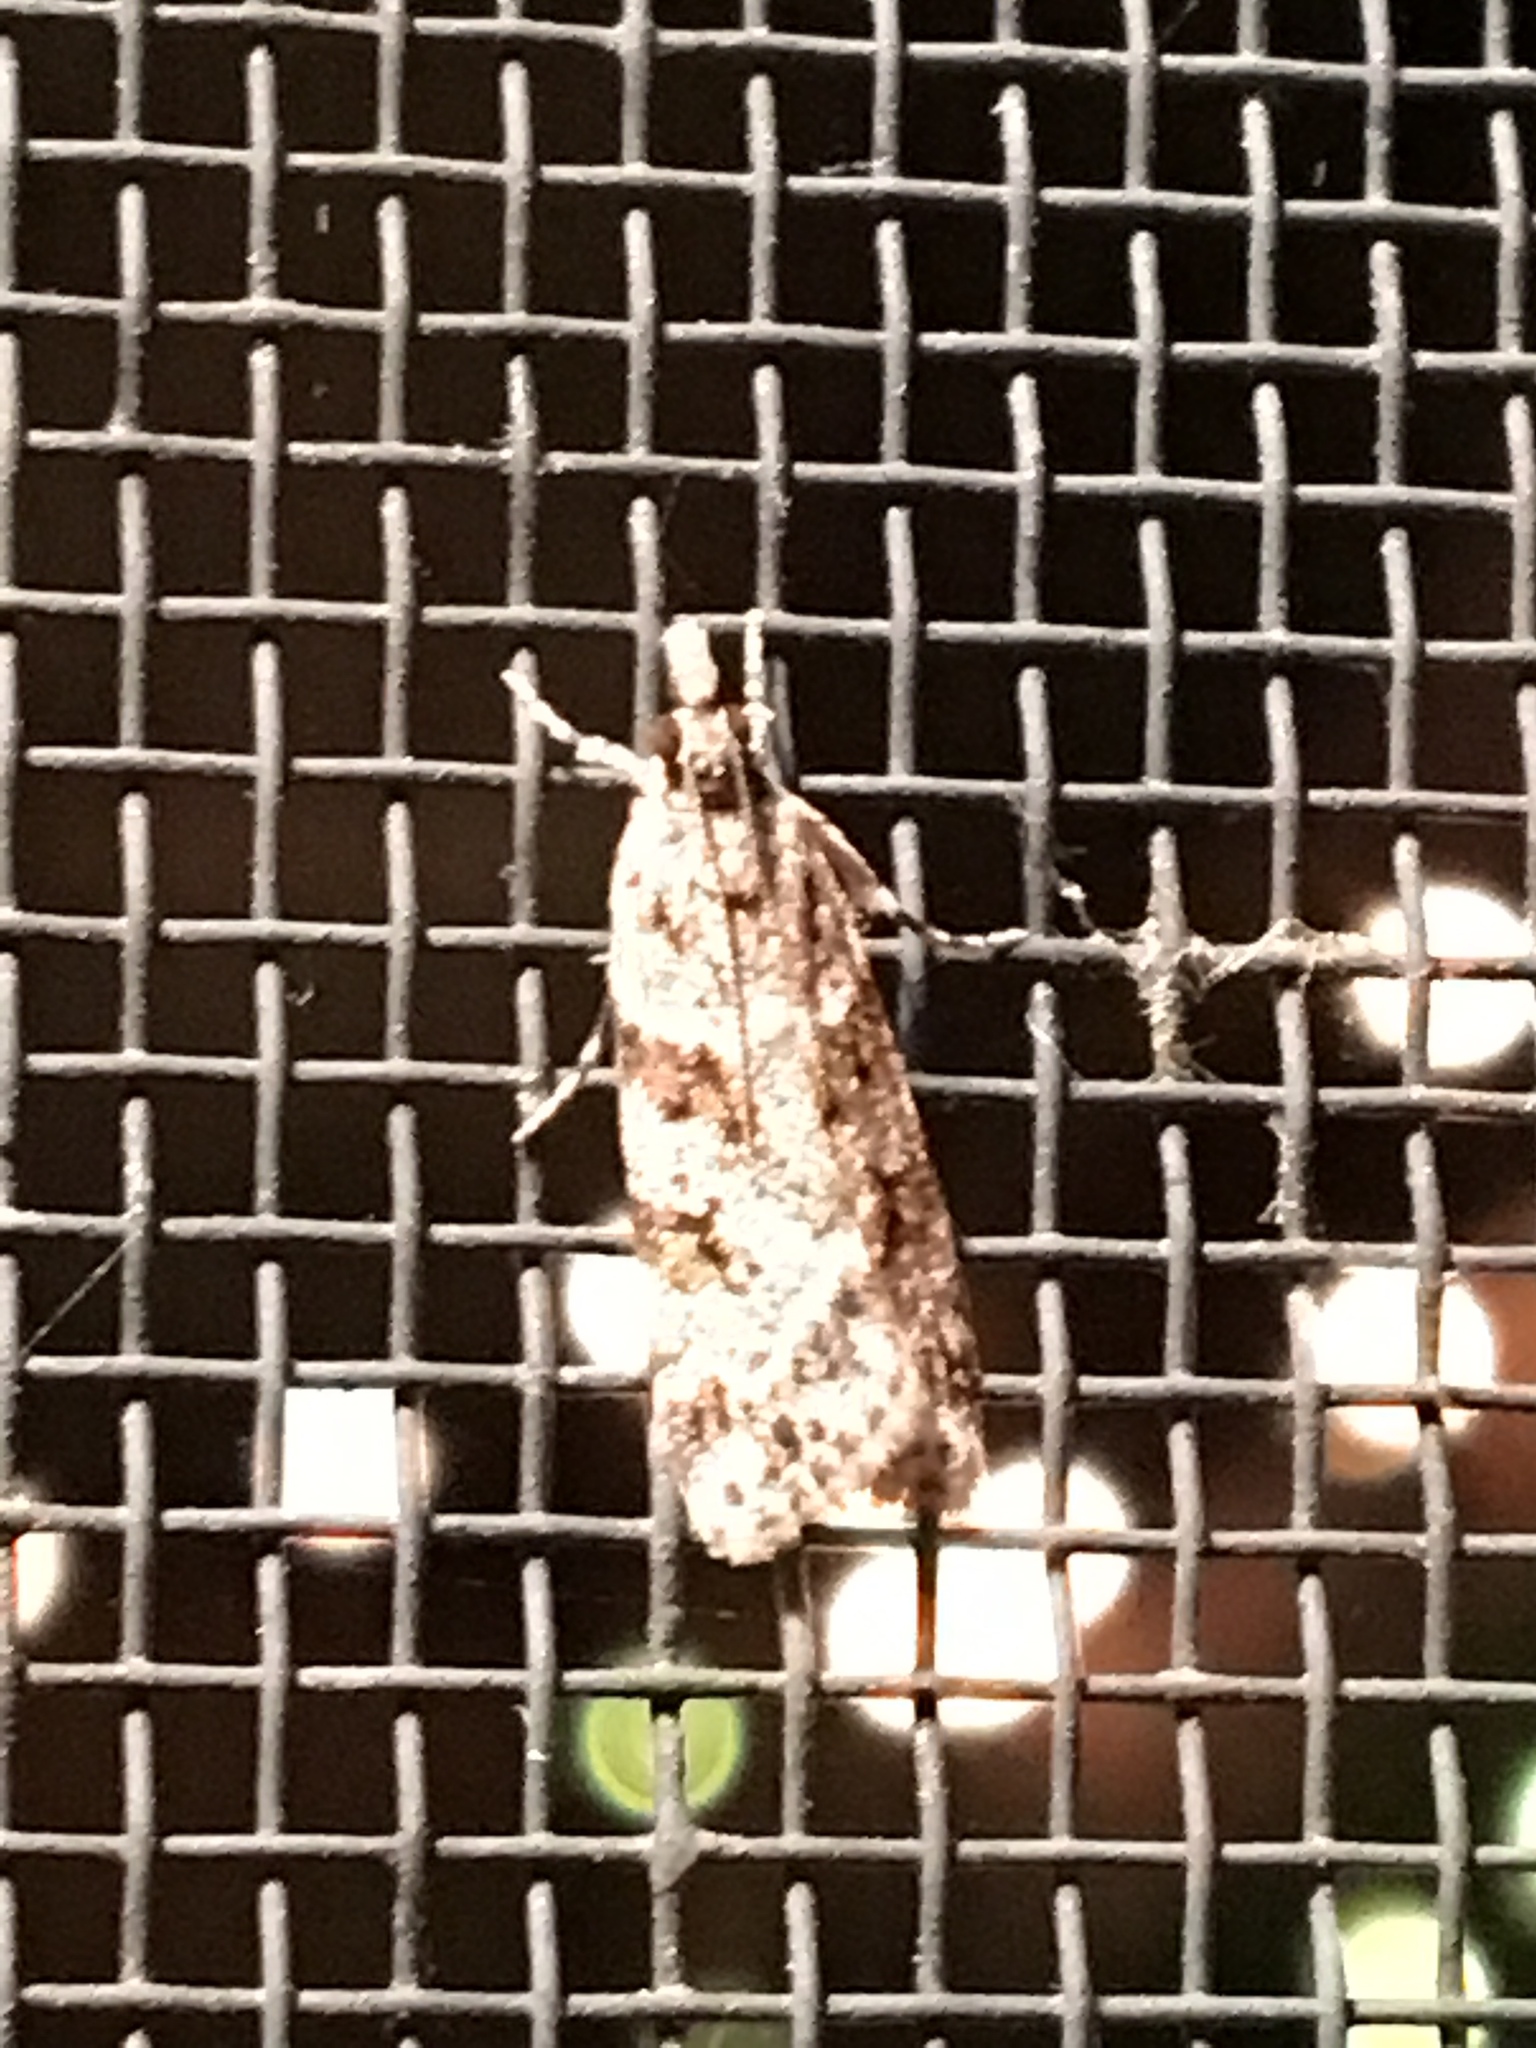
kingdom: Animalia
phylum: Arthropoda
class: Insecta
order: Lepidoptera
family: Crambidae
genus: Scoparia
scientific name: Scoparia biplagialis
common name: Double-striped scoparia moth
